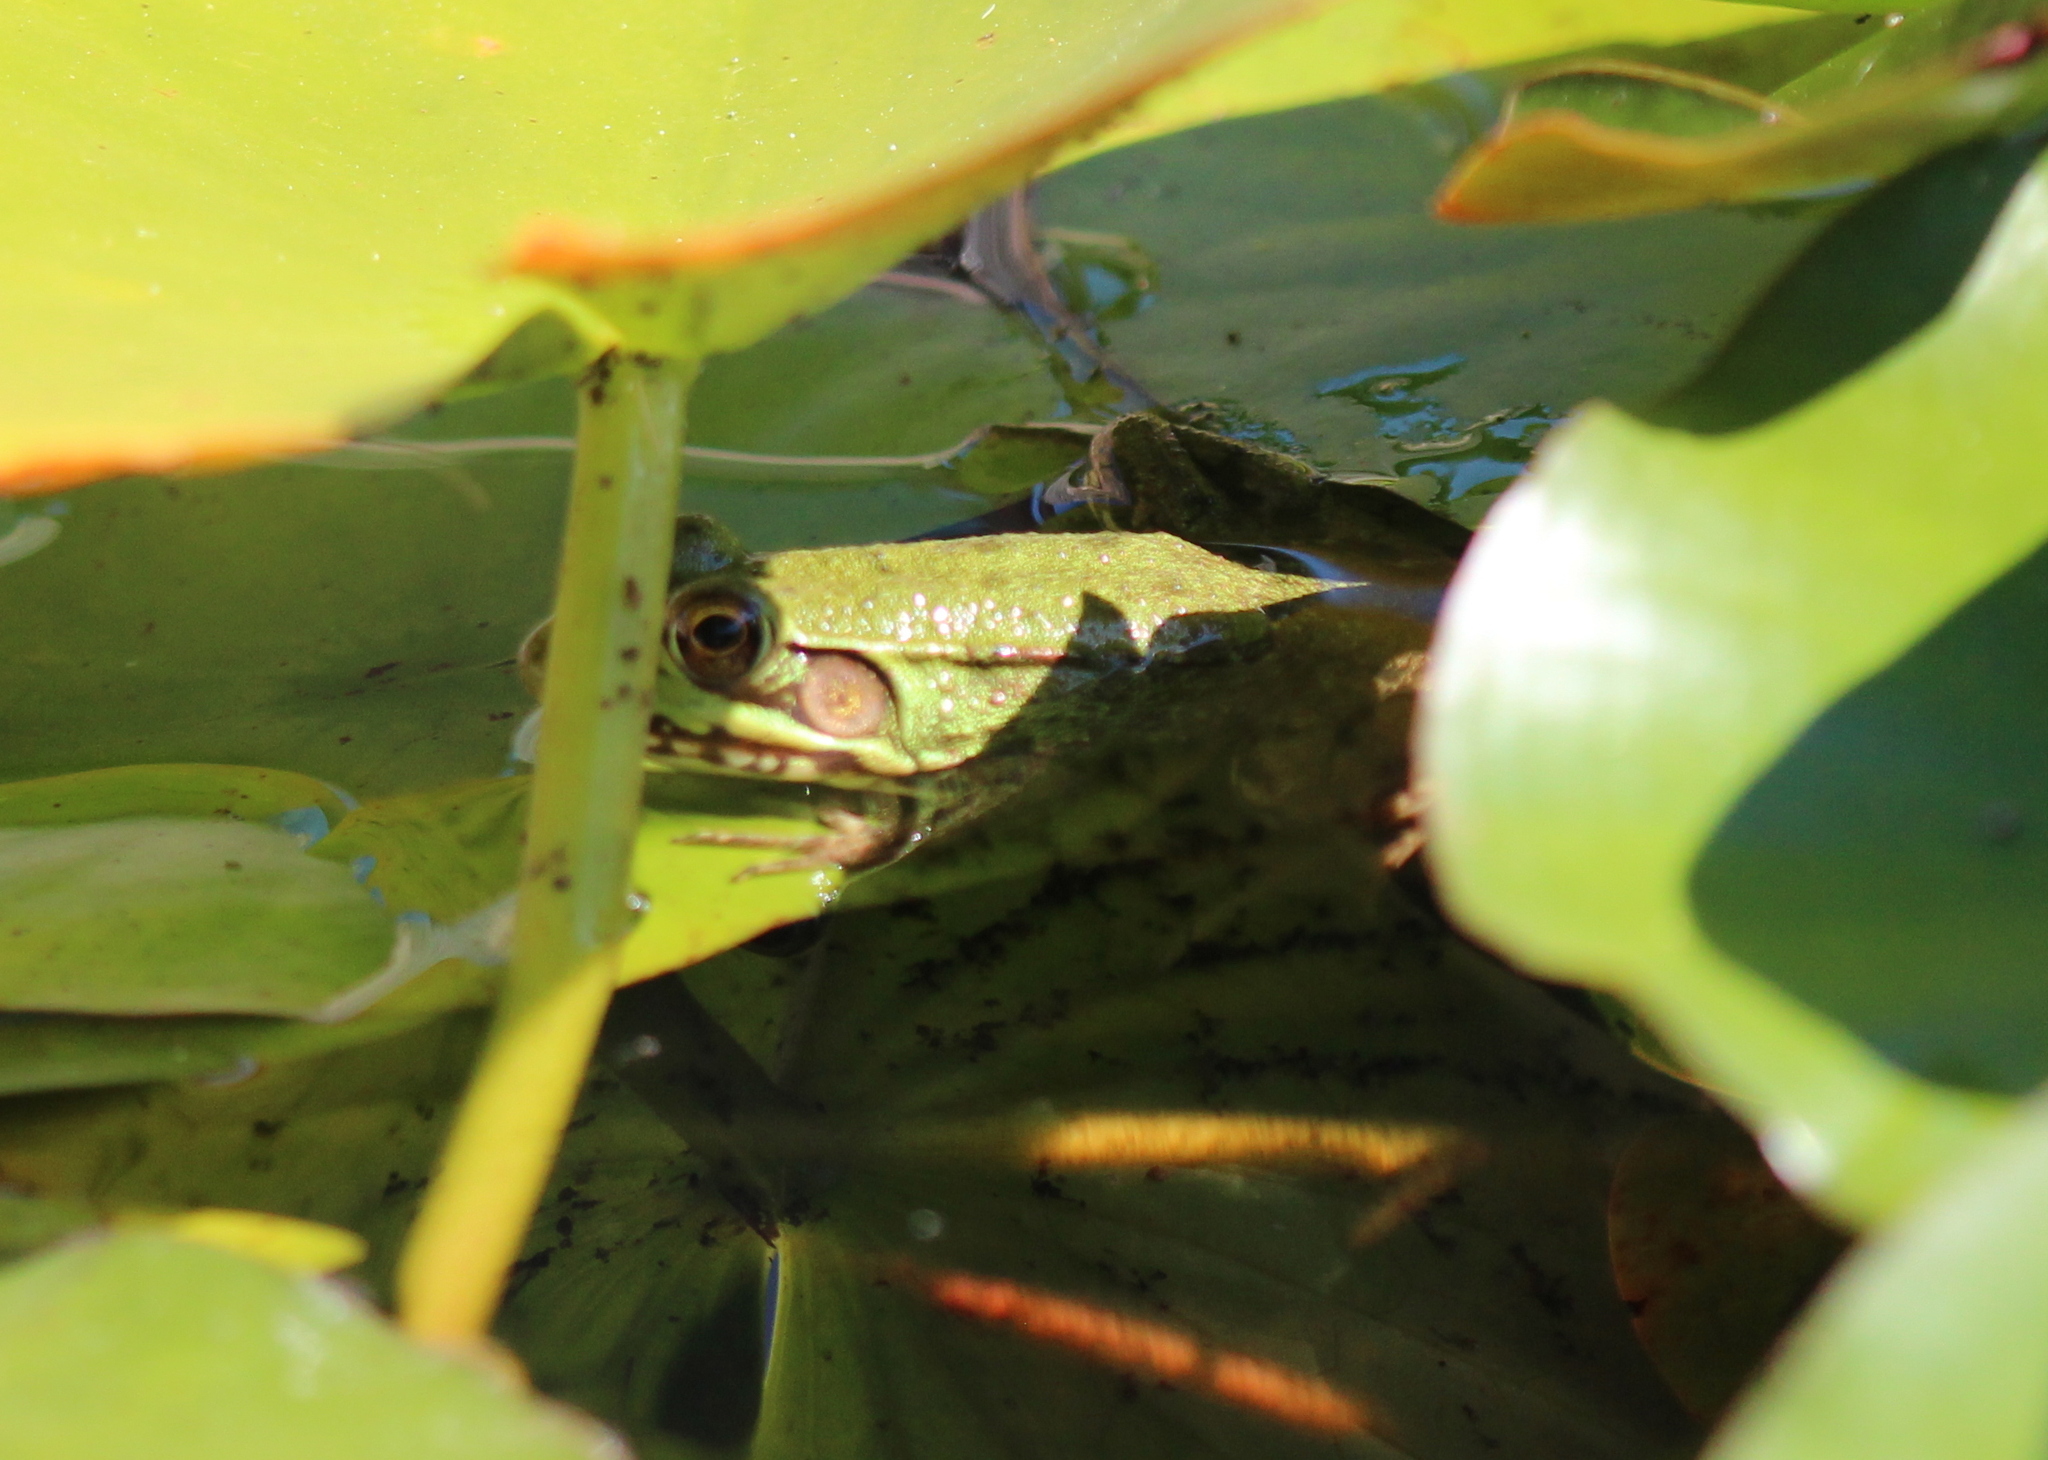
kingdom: Animalia
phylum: Chordata
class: Amphibia
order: Anura
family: Ranidae
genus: Lithobates
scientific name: Lithobates clamitans
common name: Green frog
